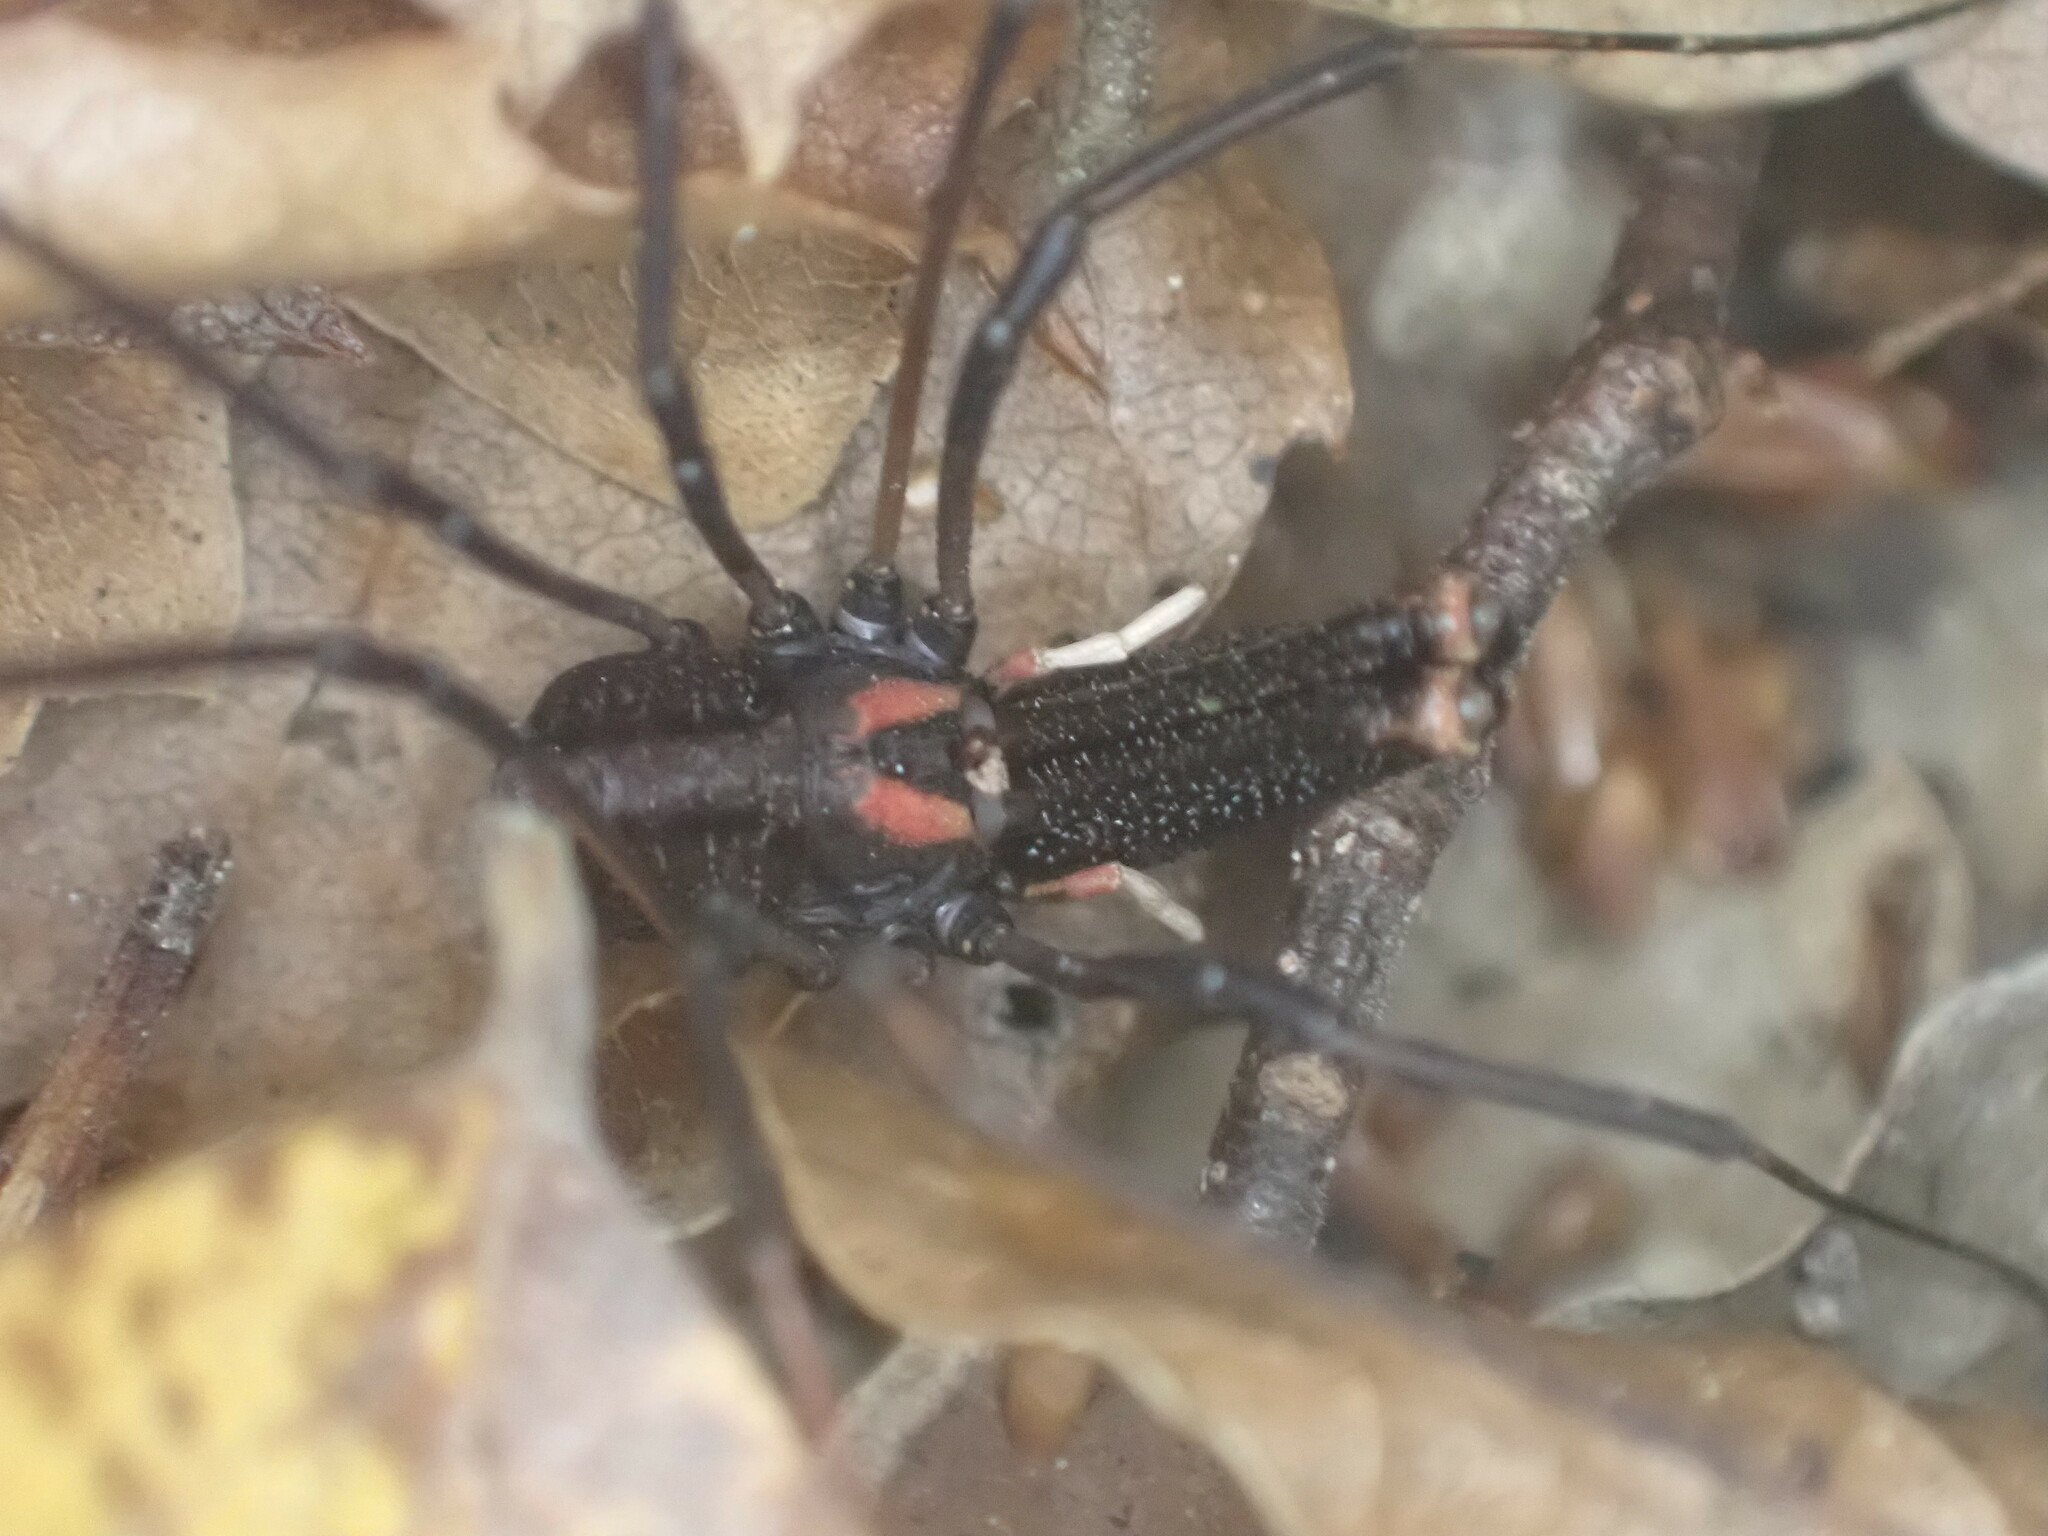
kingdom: Animalia
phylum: Arthropoda
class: Arachnida
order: Opiliones
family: Neopilionidae
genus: Forsteropsalis
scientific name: Forsteropsalis inconstans
